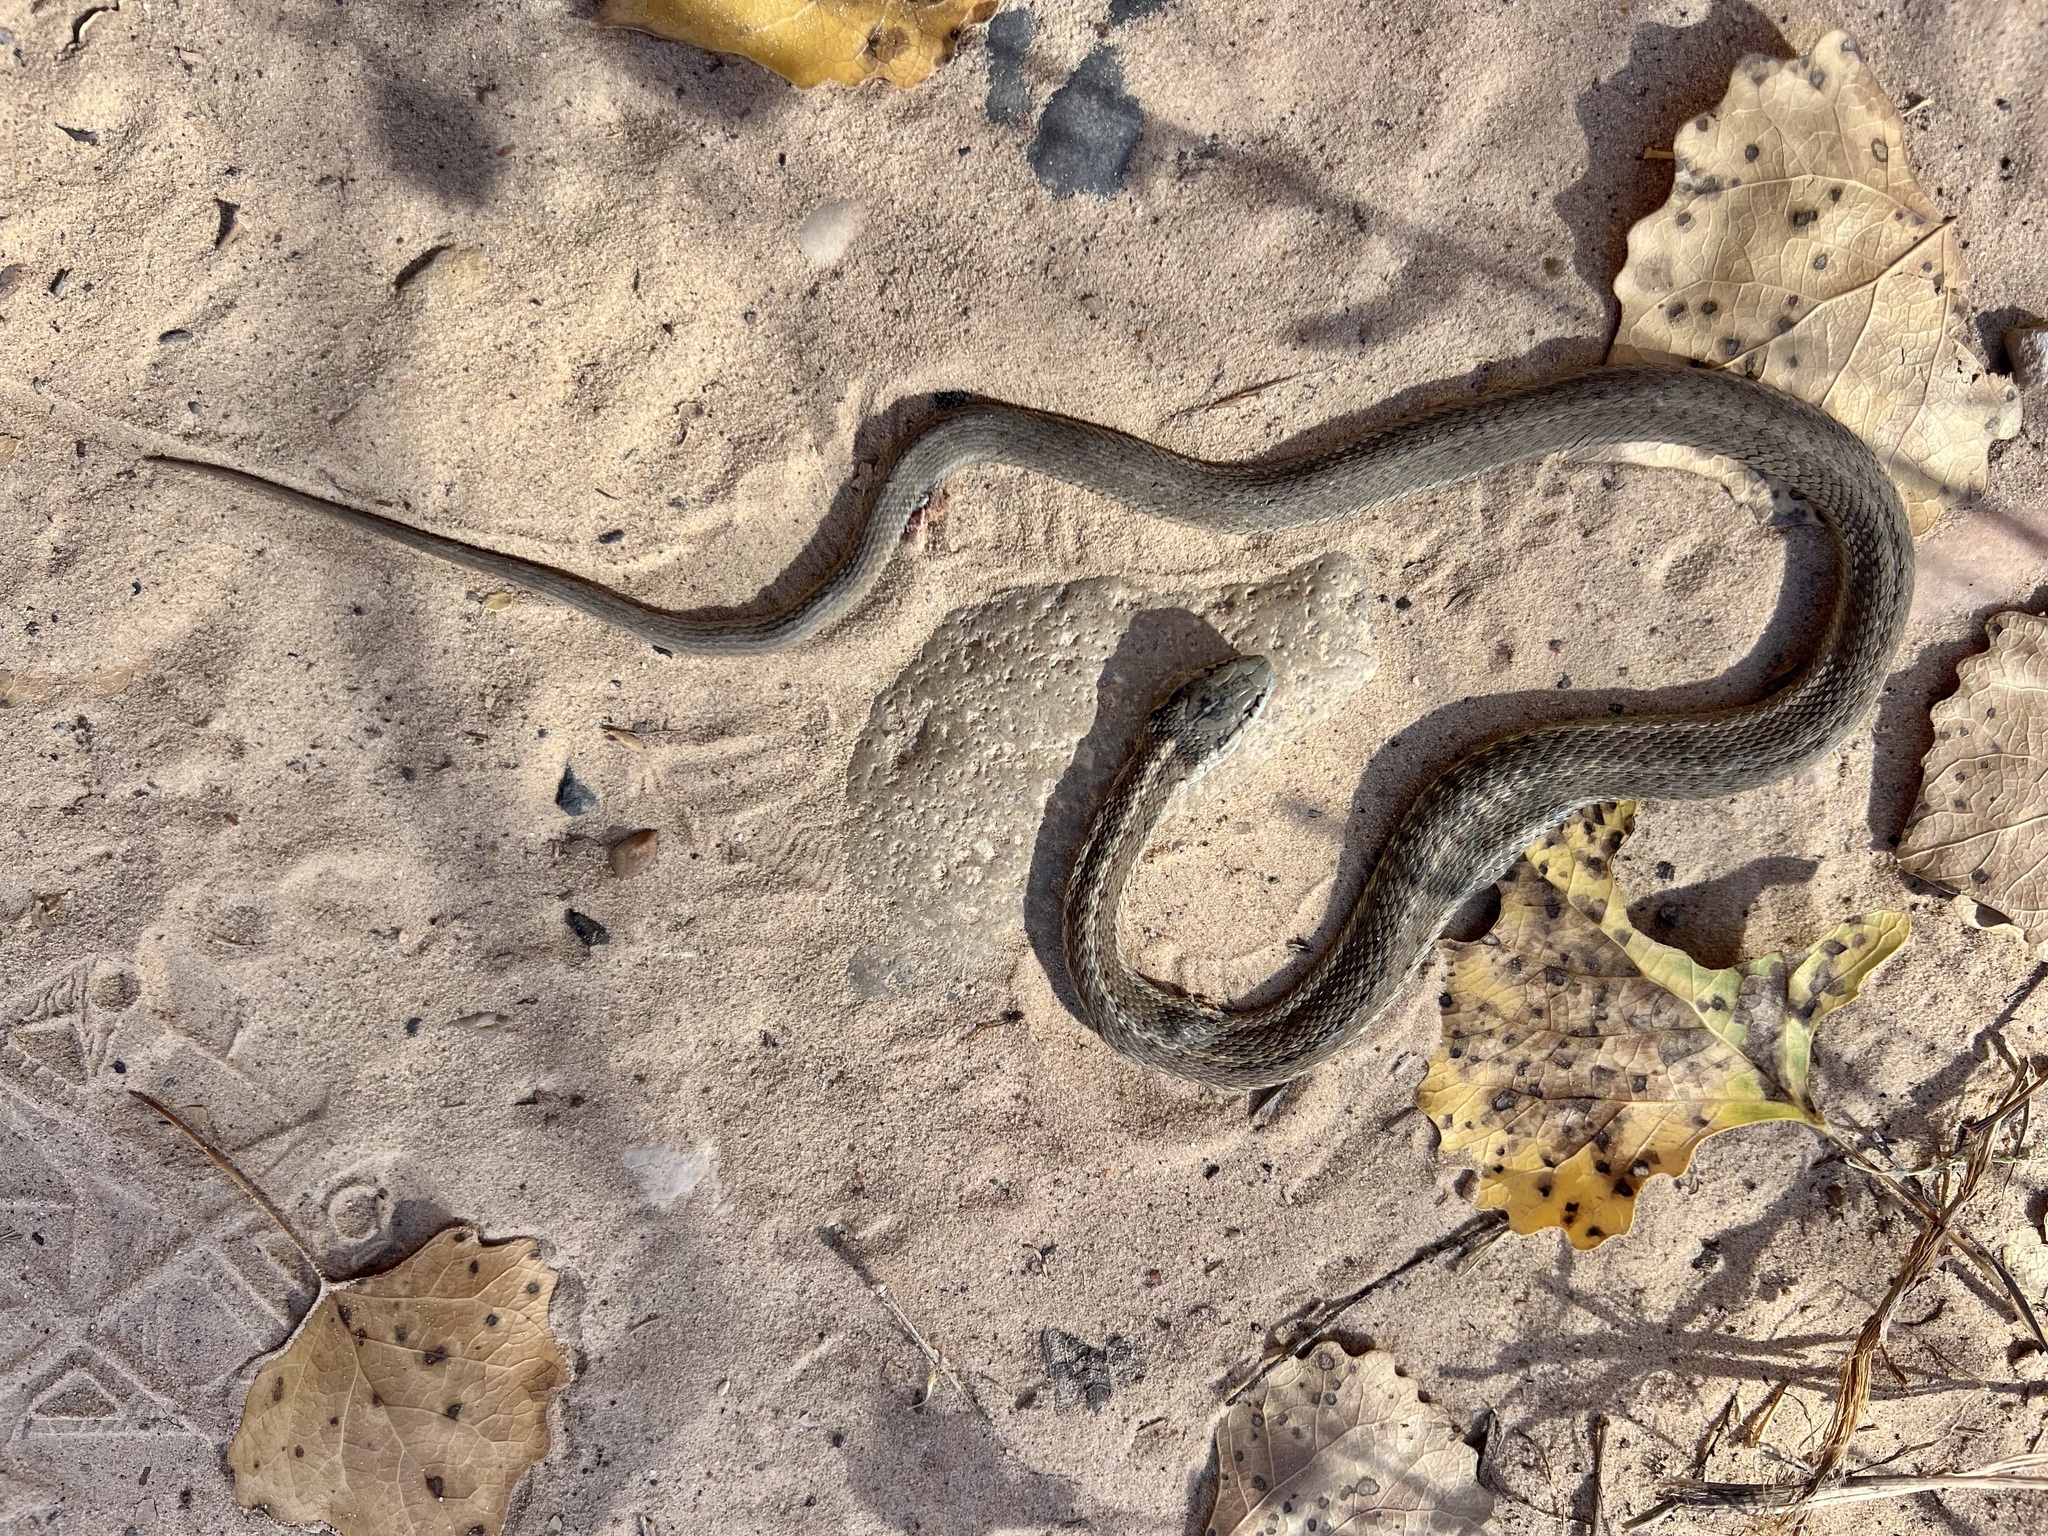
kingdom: Animalia
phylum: Chordata
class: Squamata
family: Colubridae
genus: Thamnophis
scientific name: Thamnophis elegans
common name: Western terrestrial garter snake
